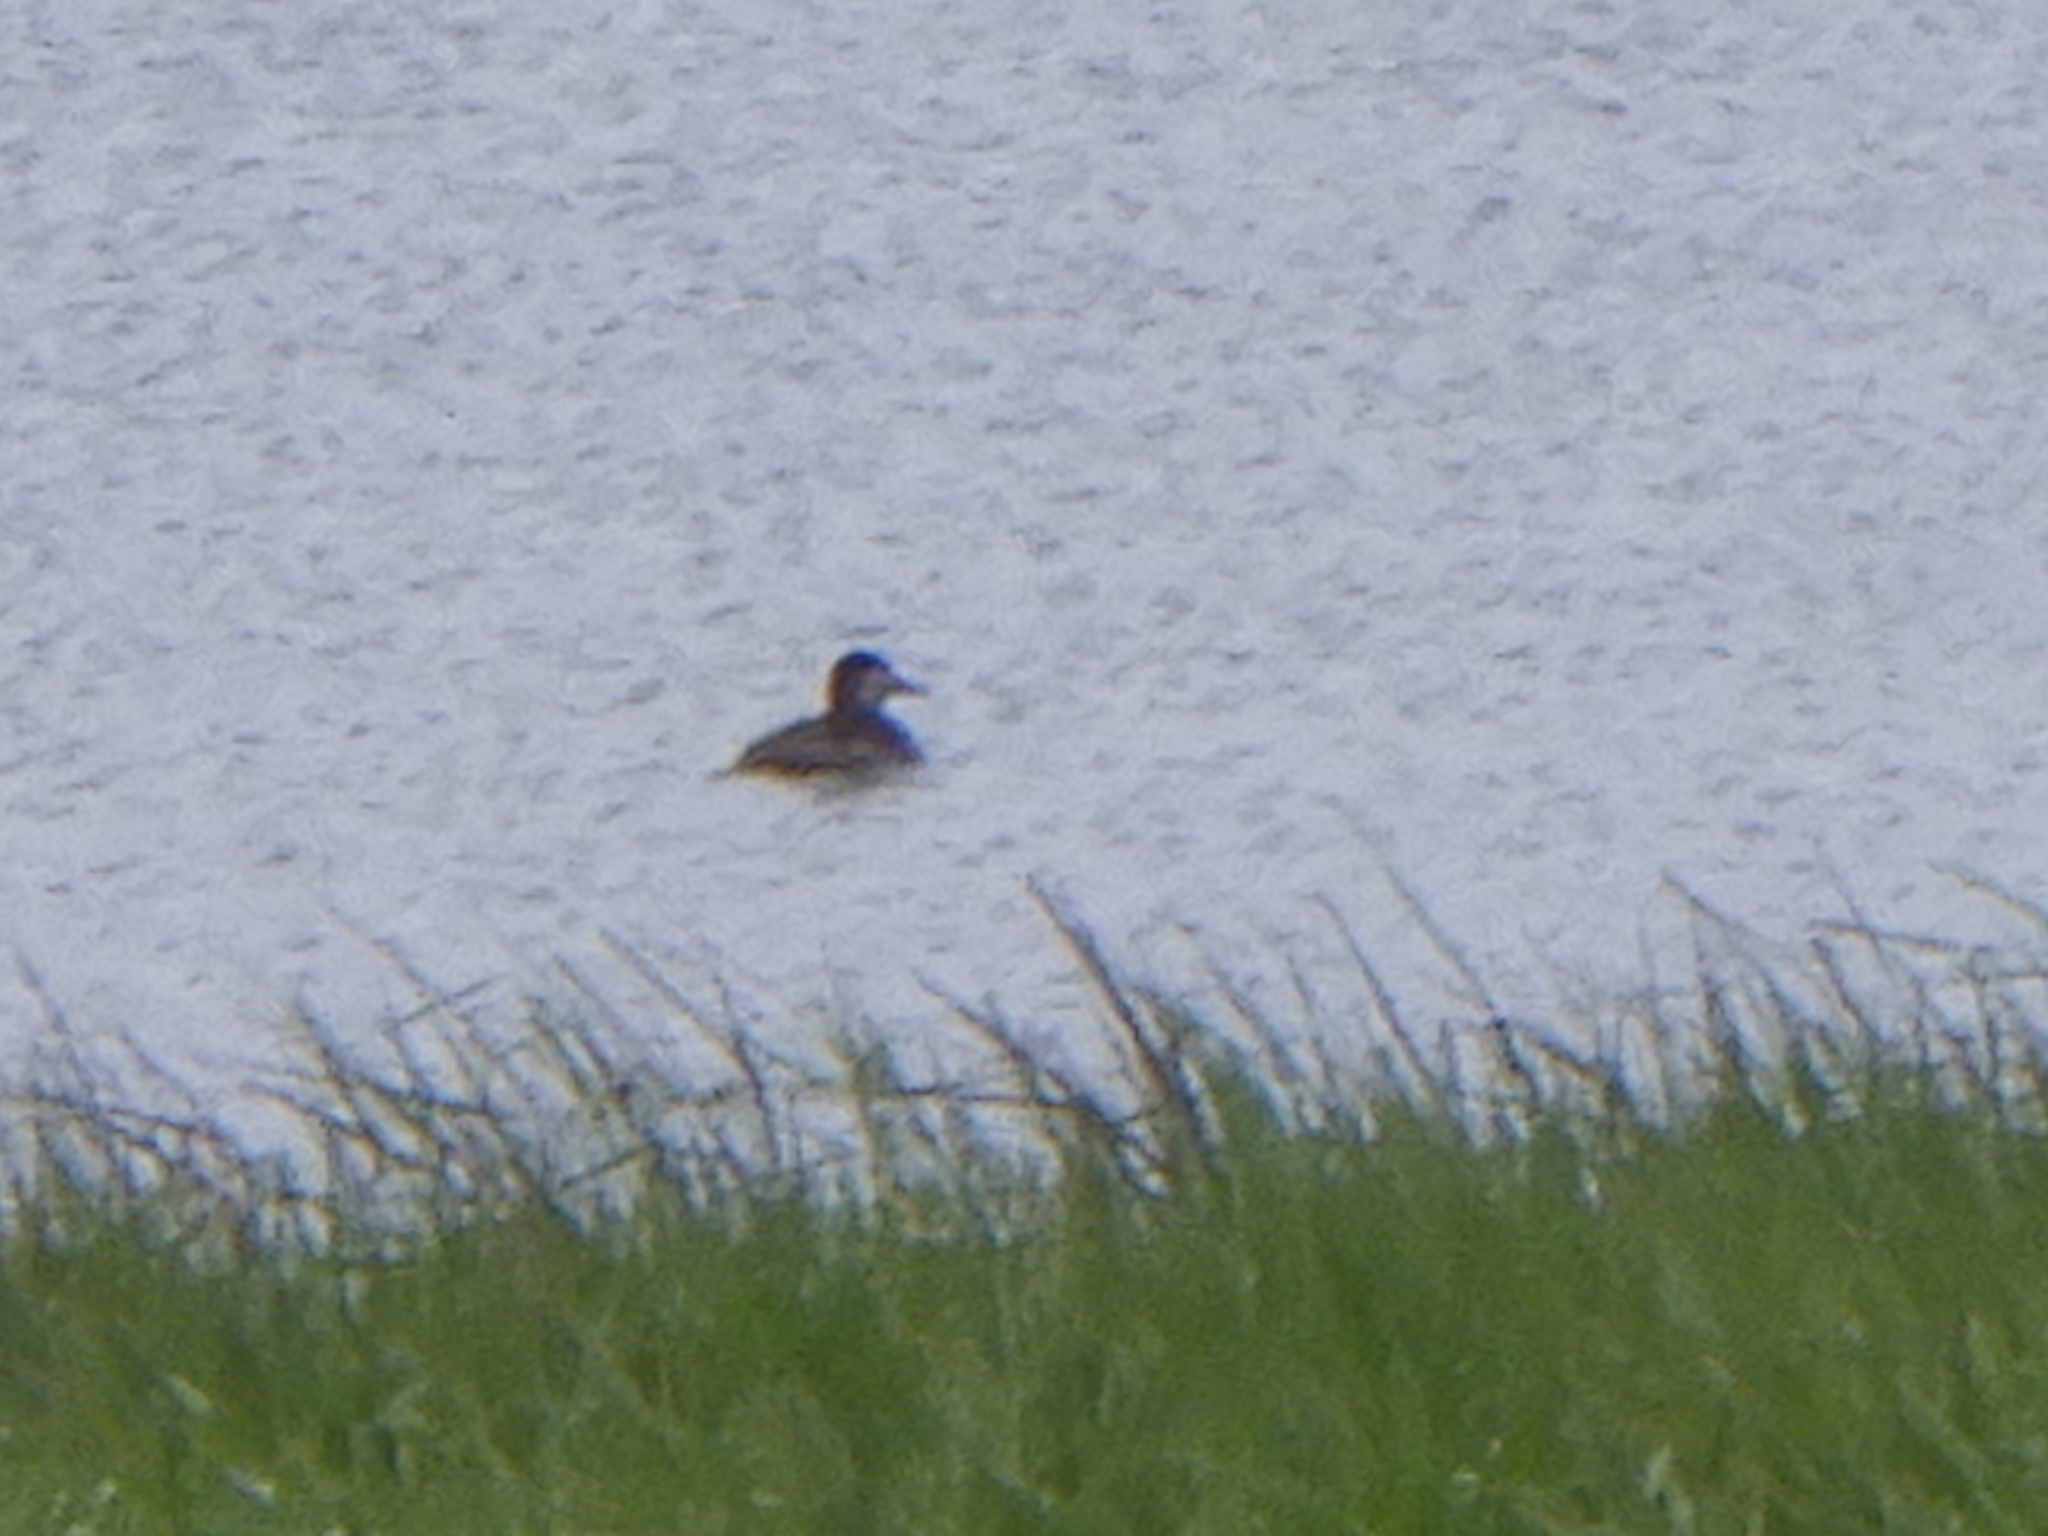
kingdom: Animalia
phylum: Chordata
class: Aves
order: Anseriformes
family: Anatidae
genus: Oxyura
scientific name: Oxyura jamaicensis
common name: Ruddy duck
